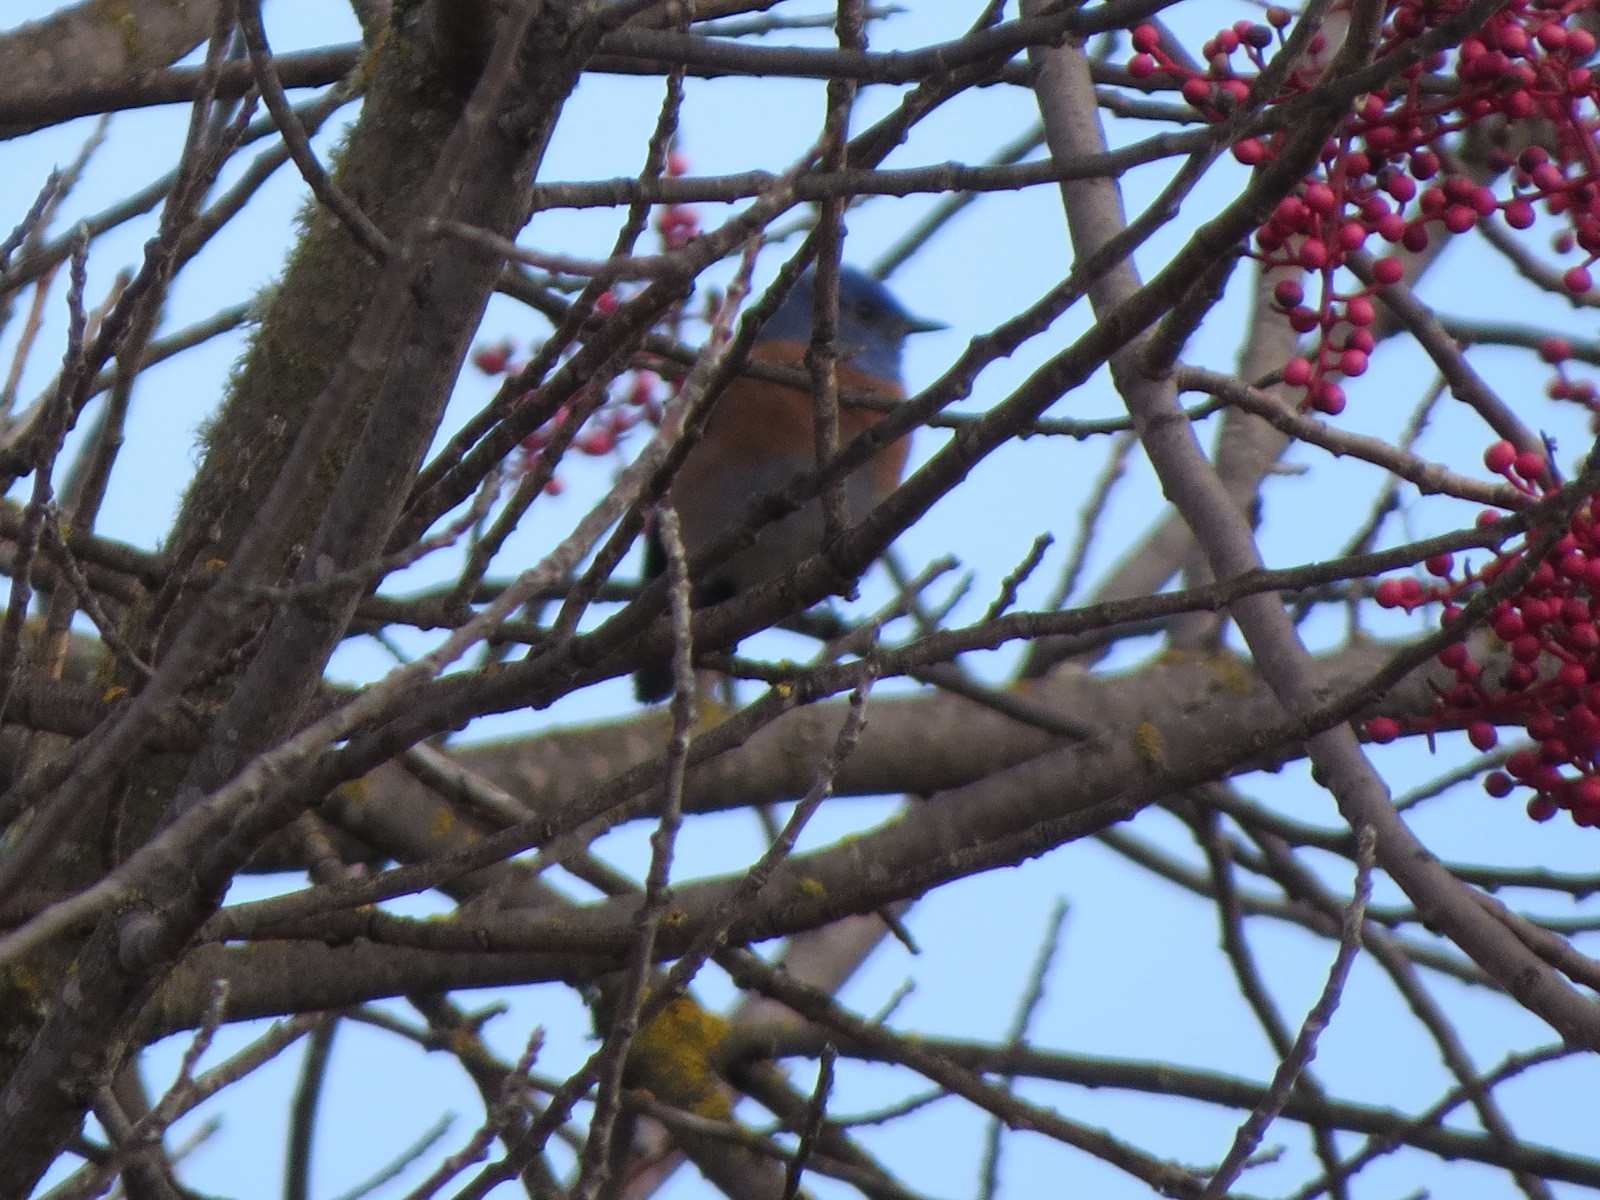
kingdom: Animalia
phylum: Chordata
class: Aves
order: Passeriformes
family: Turdidae
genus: Sialia
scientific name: Sialia mexicana
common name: Western bluebird
